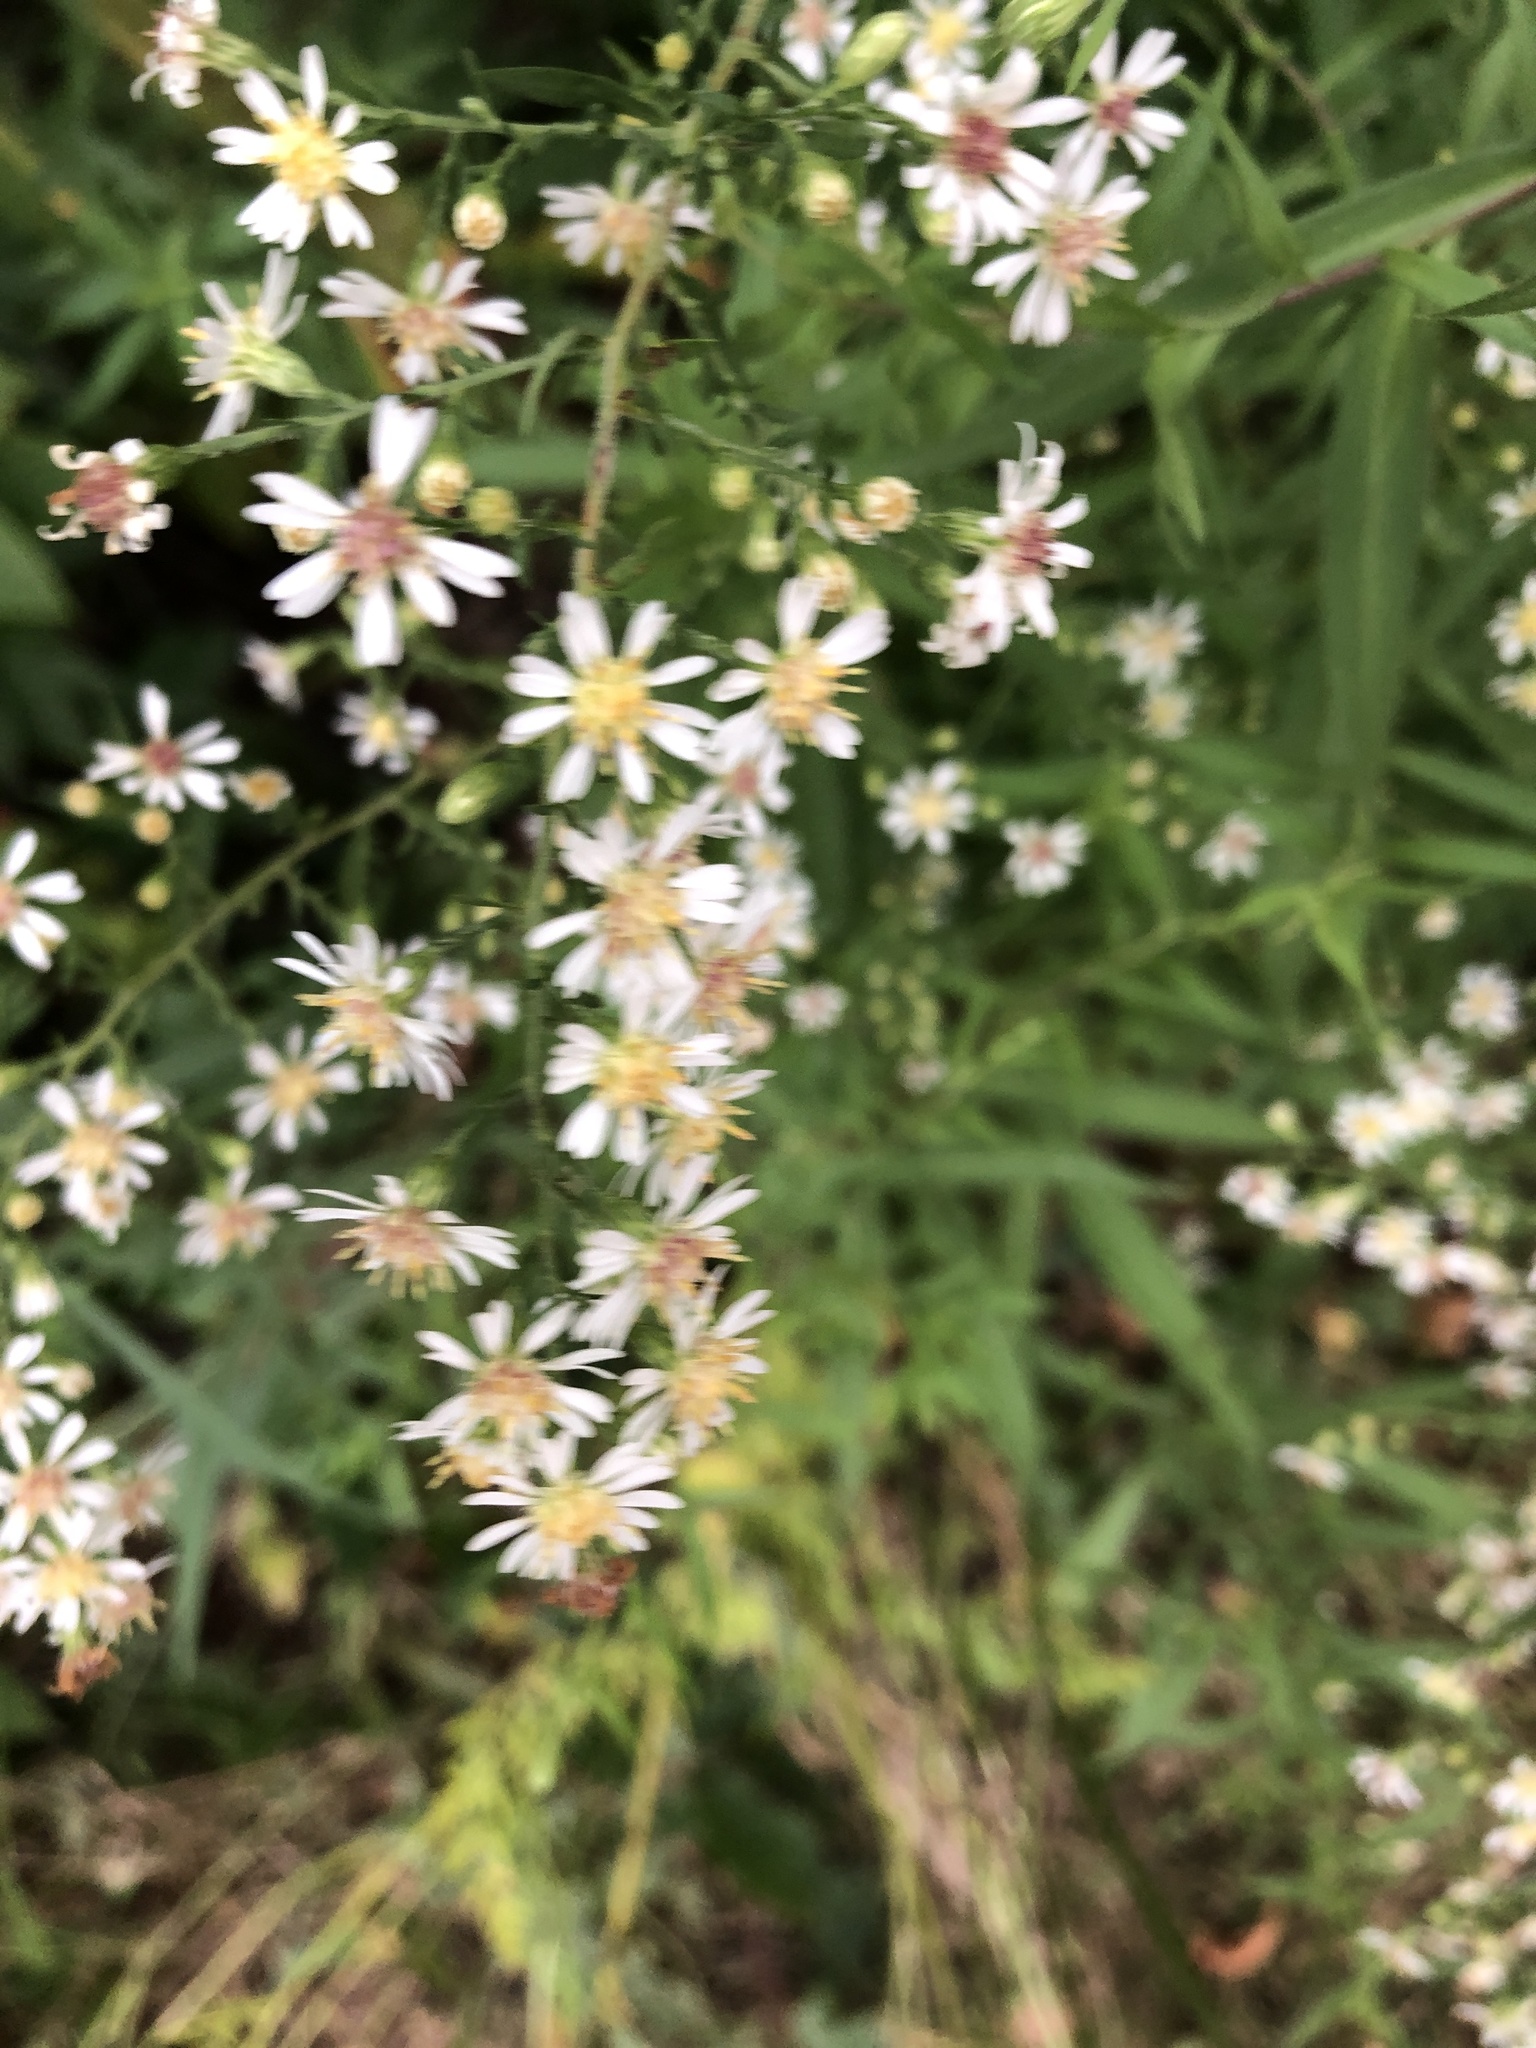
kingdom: Plantae
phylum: Tracheophyta
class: Magnoliopsida
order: Asterales
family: Asteraceae
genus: Symphyotrichum
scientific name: Symphyotrichum lateriflorum
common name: Calico aster
